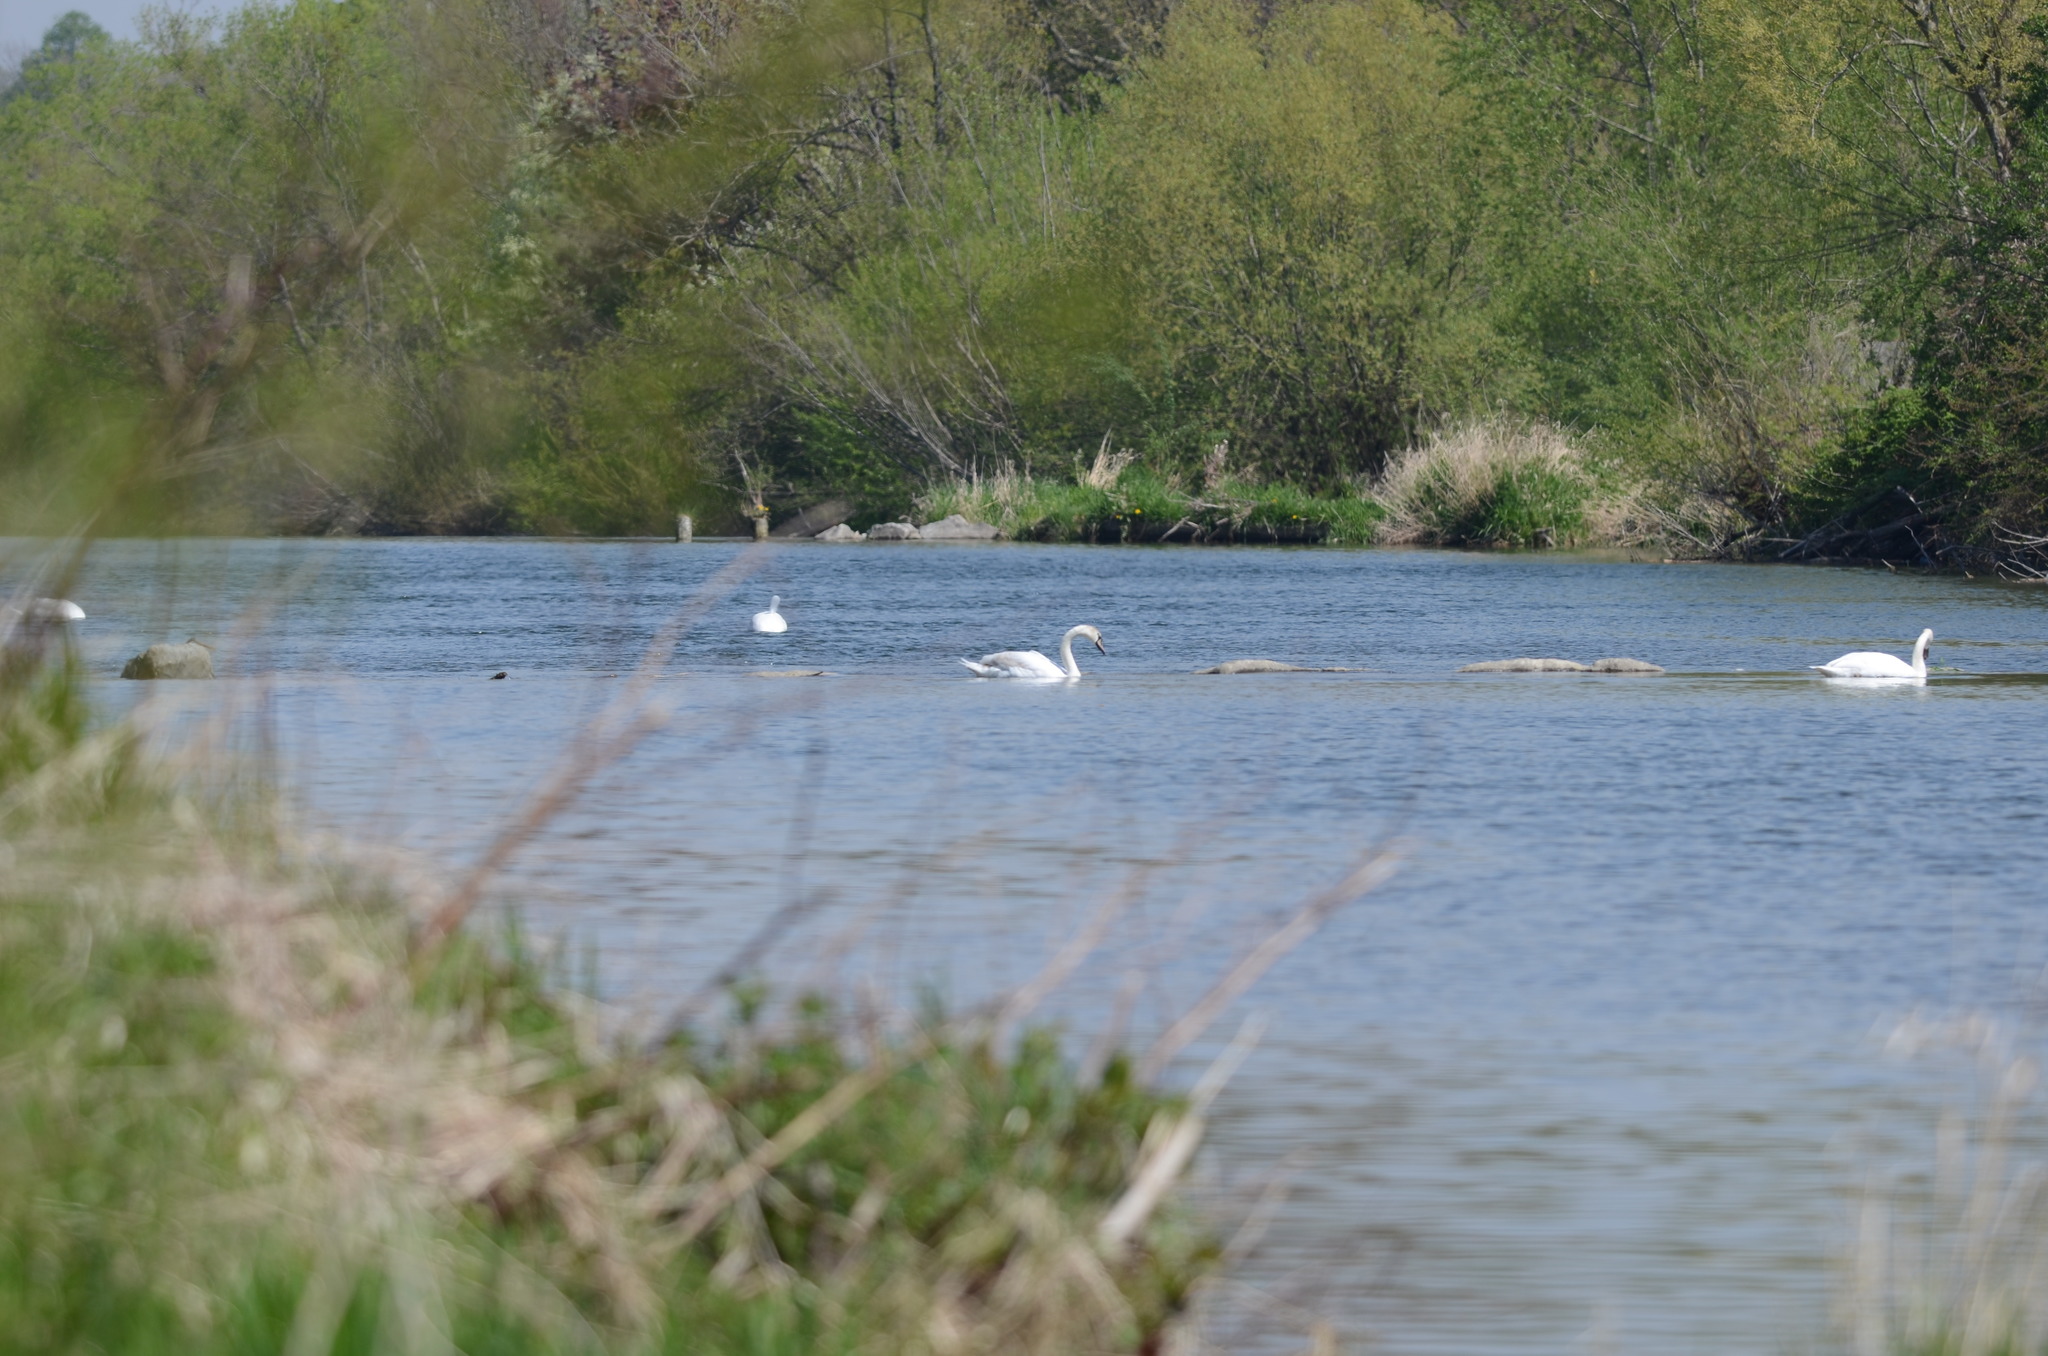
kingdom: Animalia
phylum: Chordata
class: Aves
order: Anseriformes
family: Anatidae
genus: Cygnus
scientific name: Cygnus olor
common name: Mute swan
